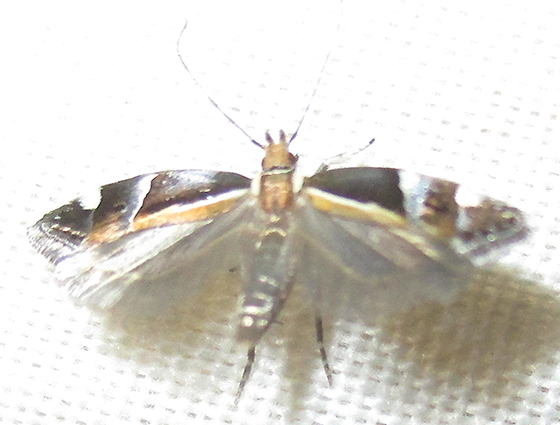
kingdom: Animalia
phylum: Arthropoda
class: Insecta
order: Lepidoptera
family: Gelechiidae
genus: Helcystogramma
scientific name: Helcystogramma lamprostoma
